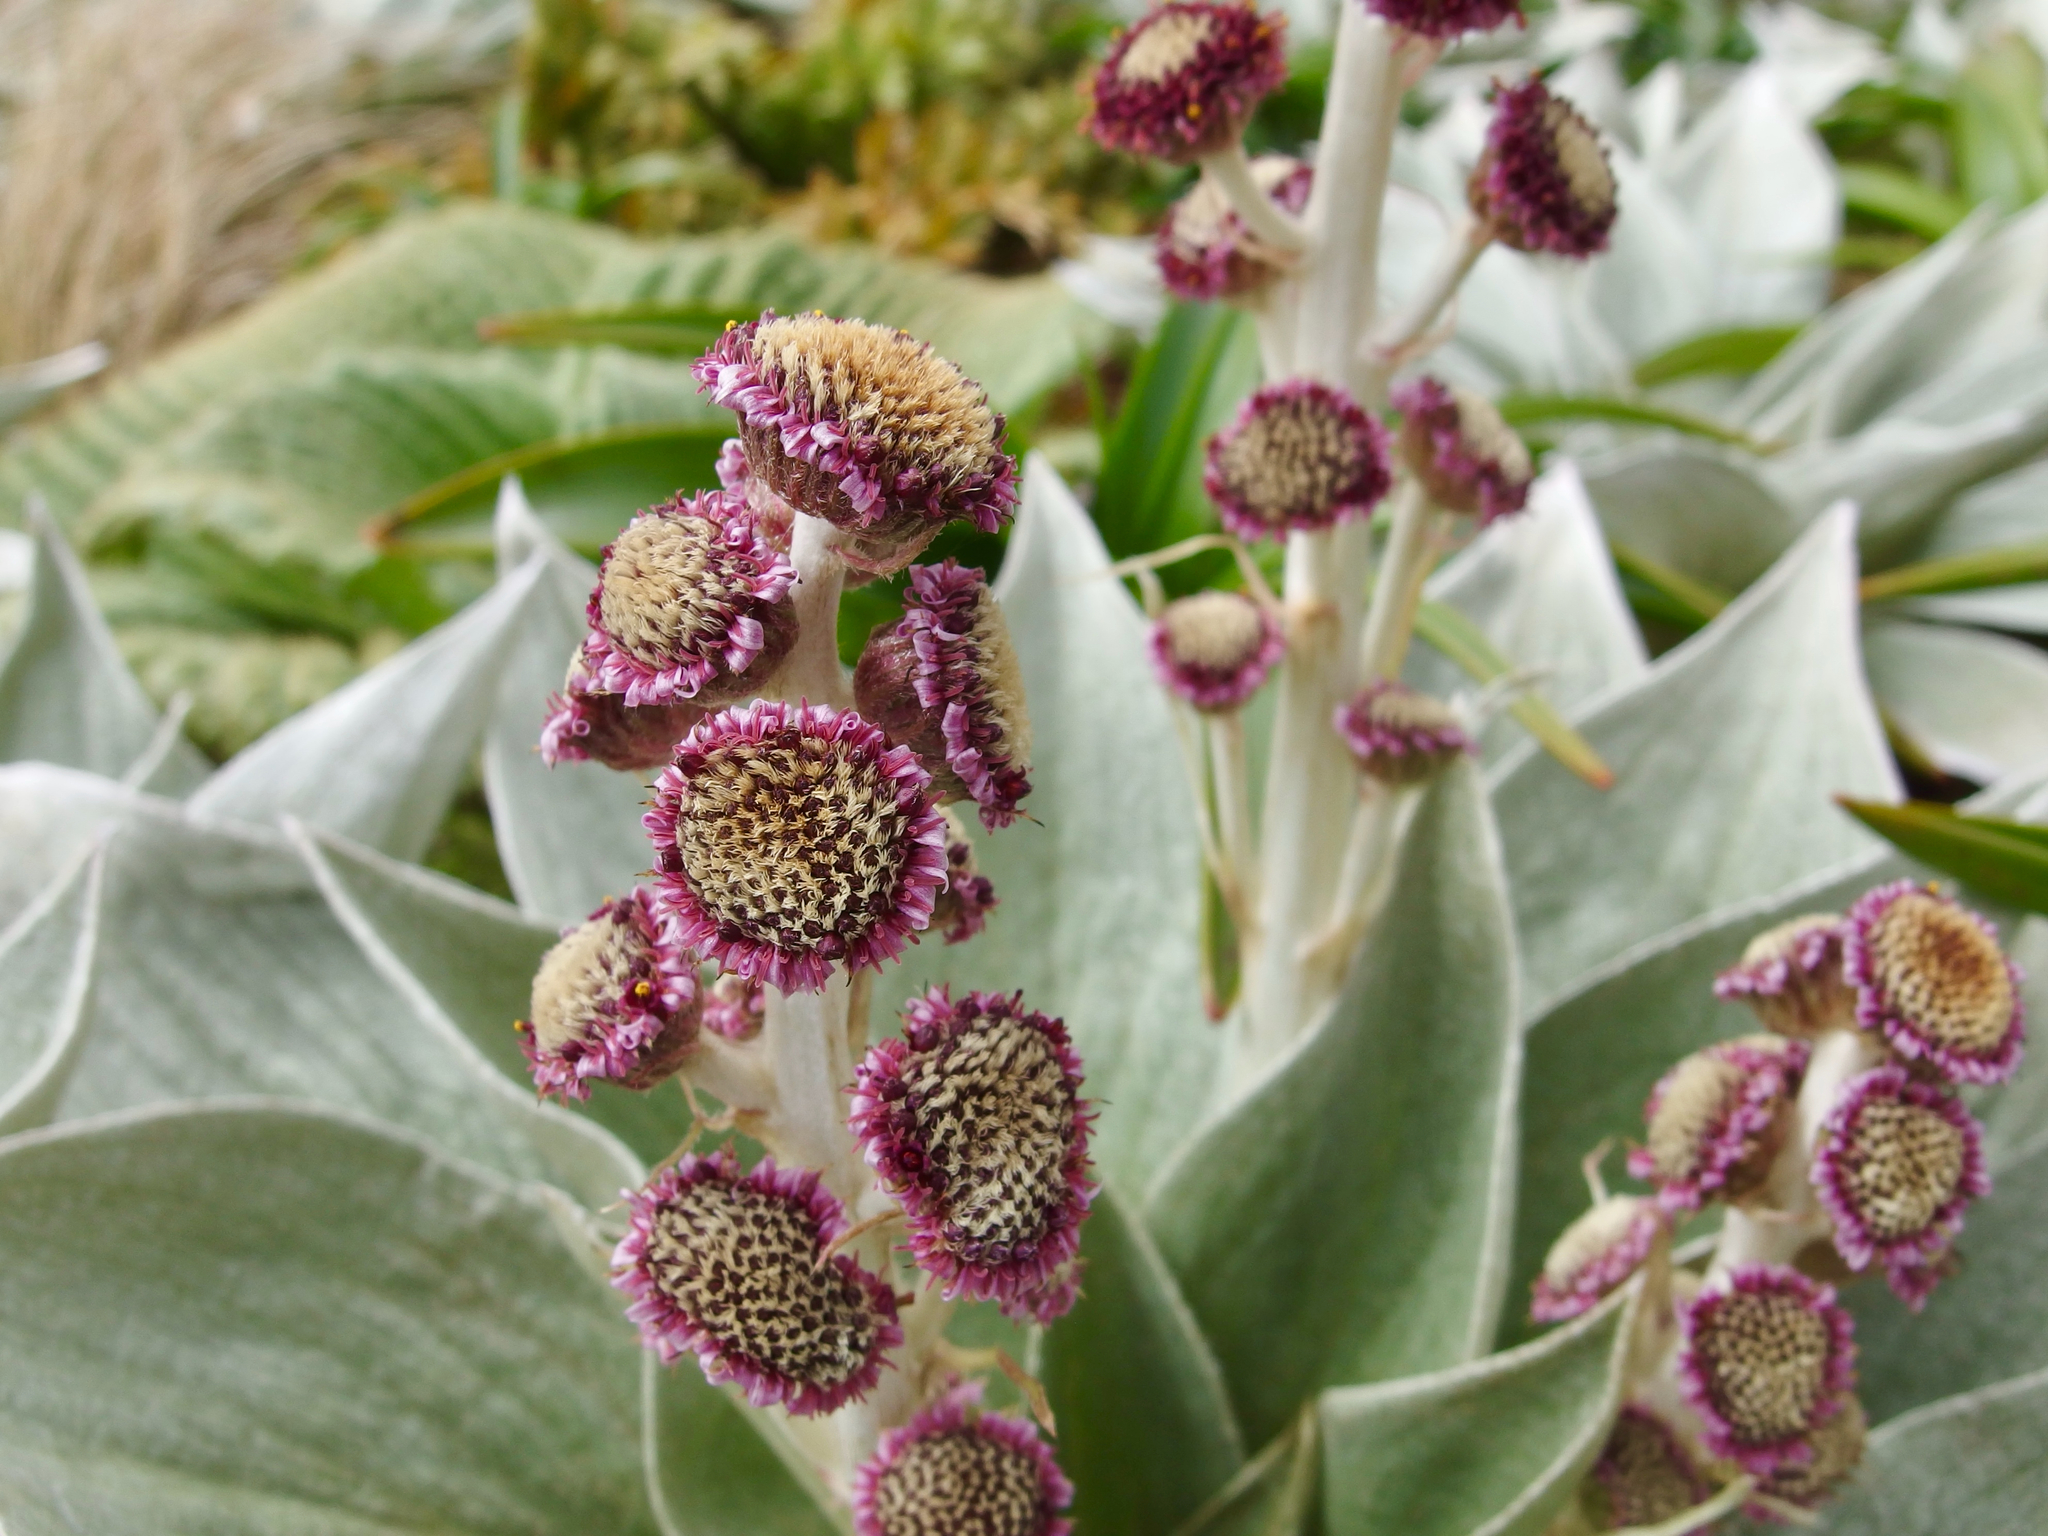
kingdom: Plantae
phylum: Tracheophyta
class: Magnoliopsida
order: Asterales
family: Asteraceae
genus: Pleurophyllum
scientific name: Pleurophyllum hookeri
